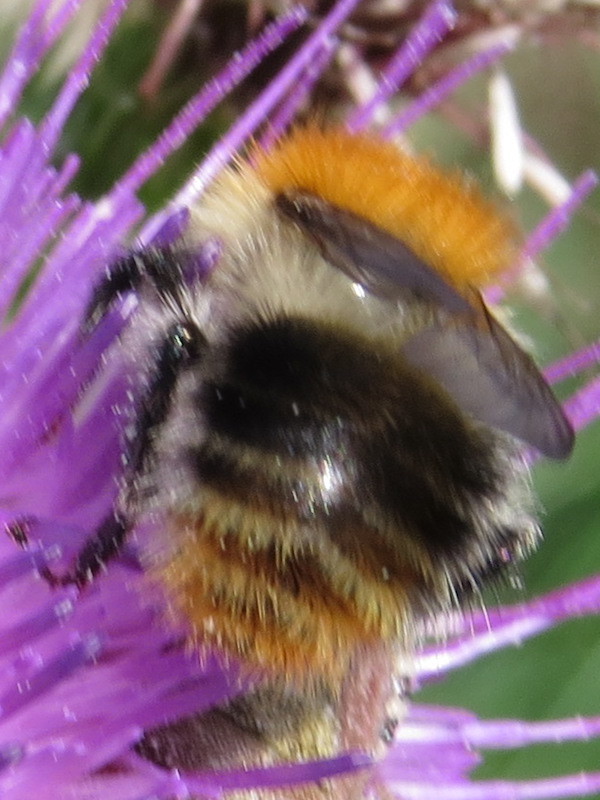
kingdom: Animalia
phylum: Arthropoda
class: Insecta
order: Hymenoptera
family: Apidae
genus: Bombus
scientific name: Bombus pascuorum
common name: Common carder bee
